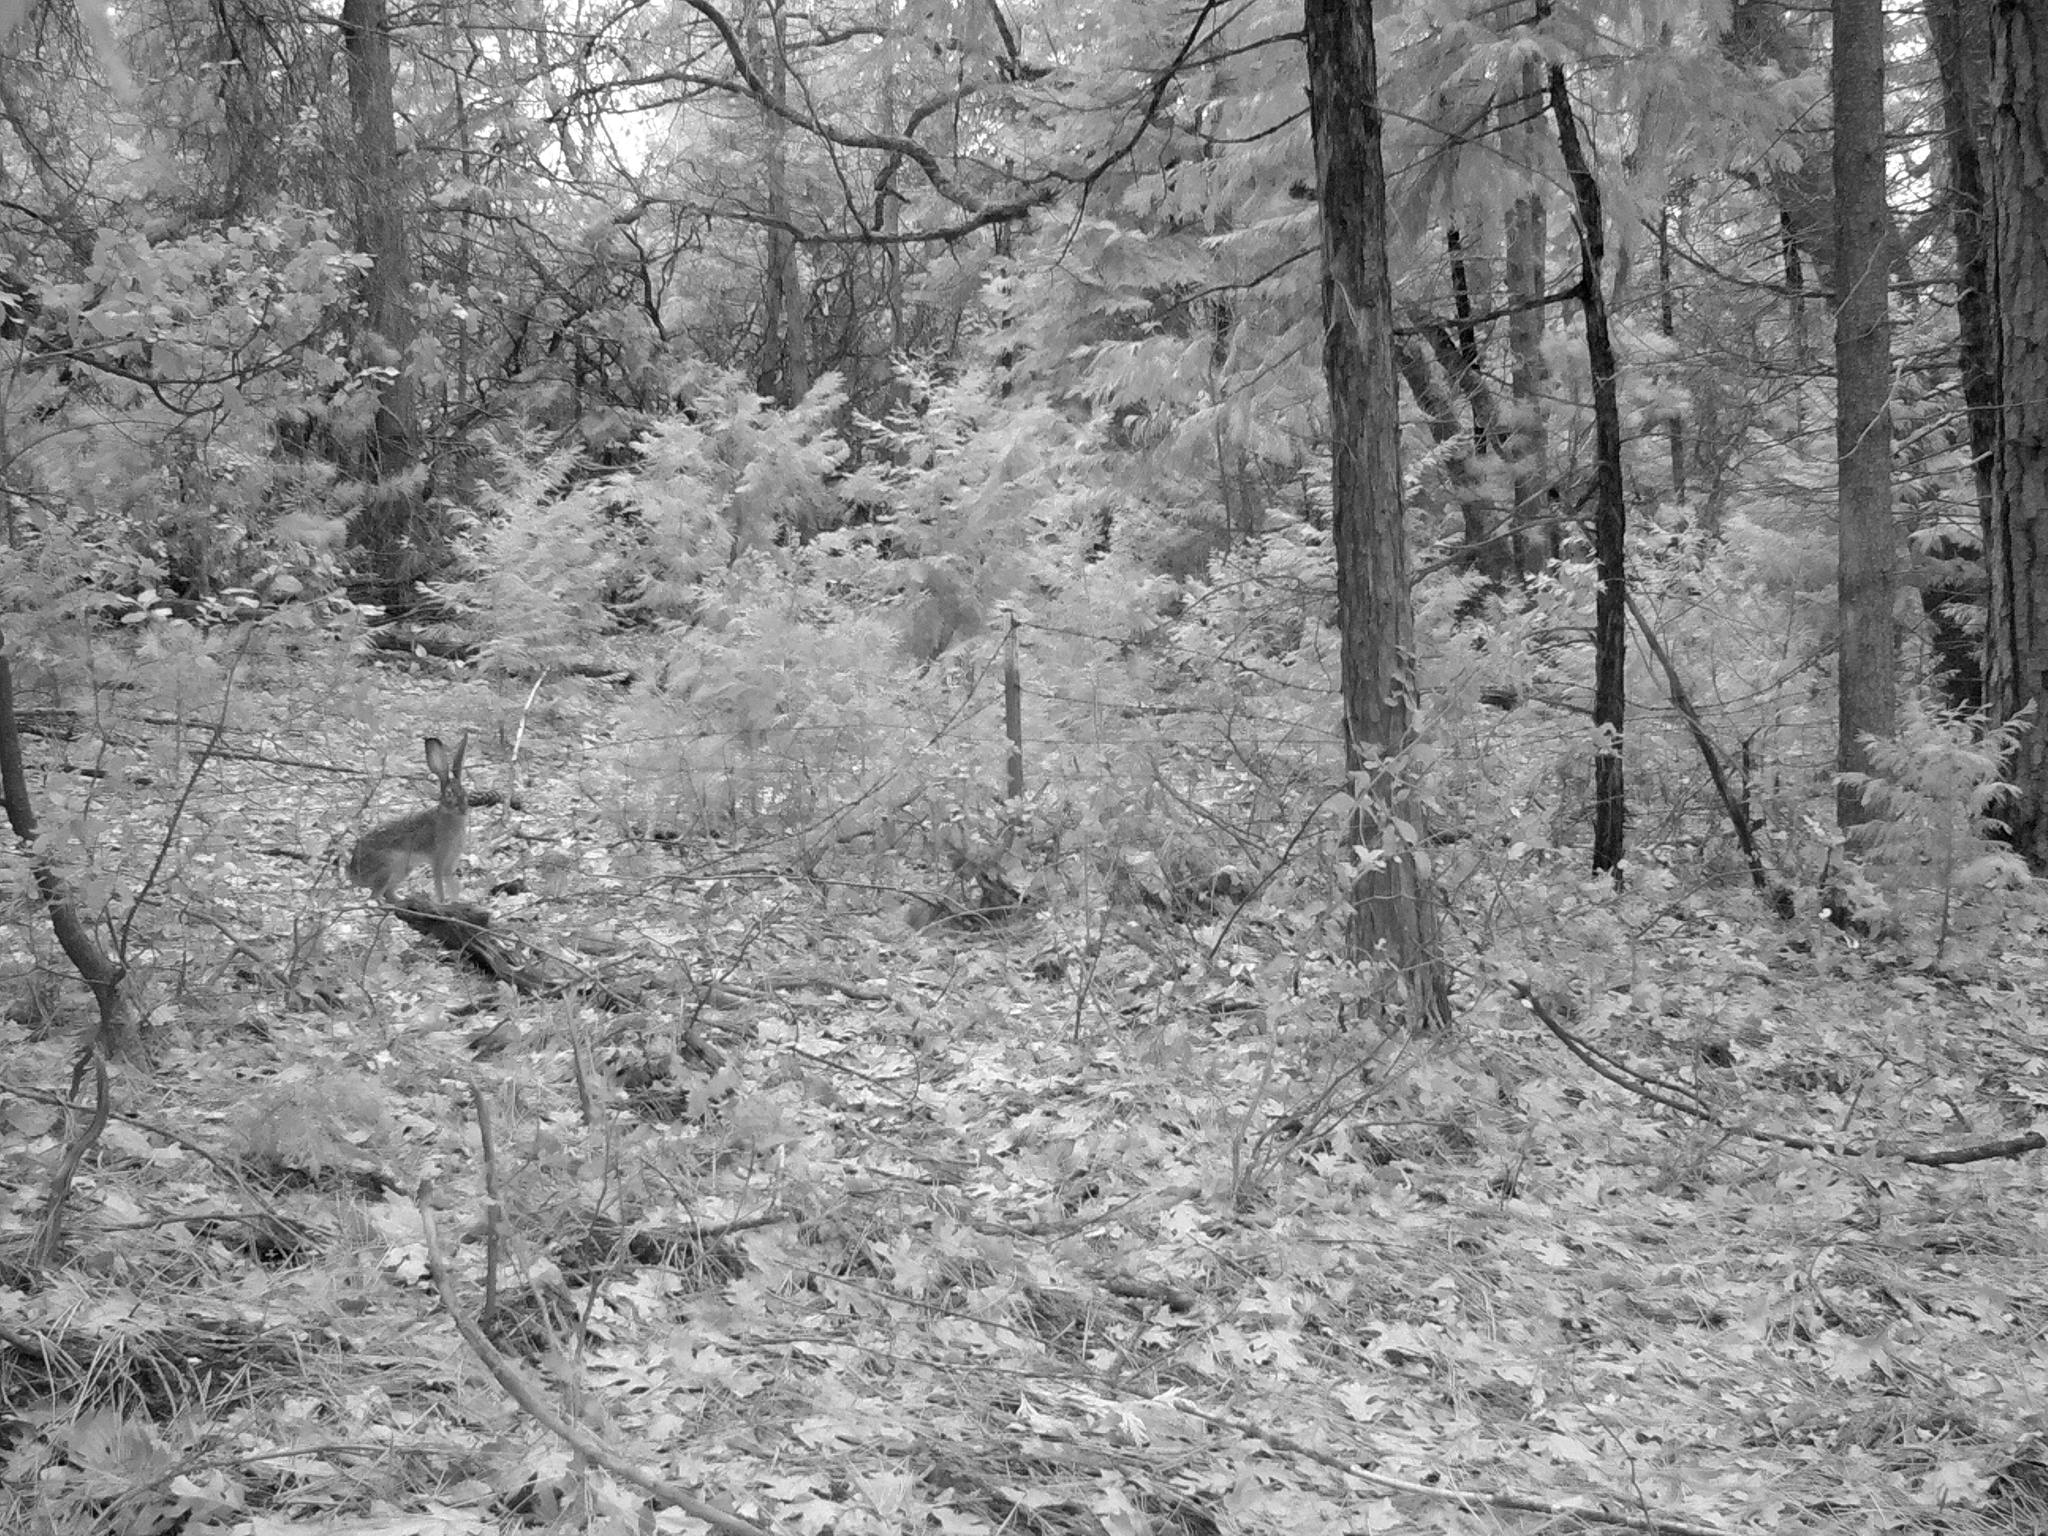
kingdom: Animalia
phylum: Chordata
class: Mammalia
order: Lagomorpha
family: Leporidae
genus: Lepus
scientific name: Lepus californicus
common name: Black-tailed jackrabbit
